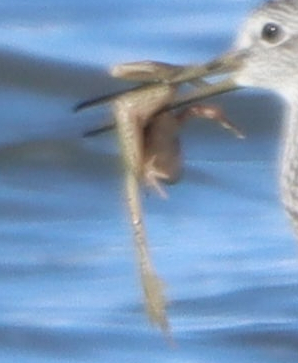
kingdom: Animalia
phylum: Chordata
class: Amphibia
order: Anura
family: Ranidae
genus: Lithobates
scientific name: Lithobates pipiens
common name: Northern leopard frog
